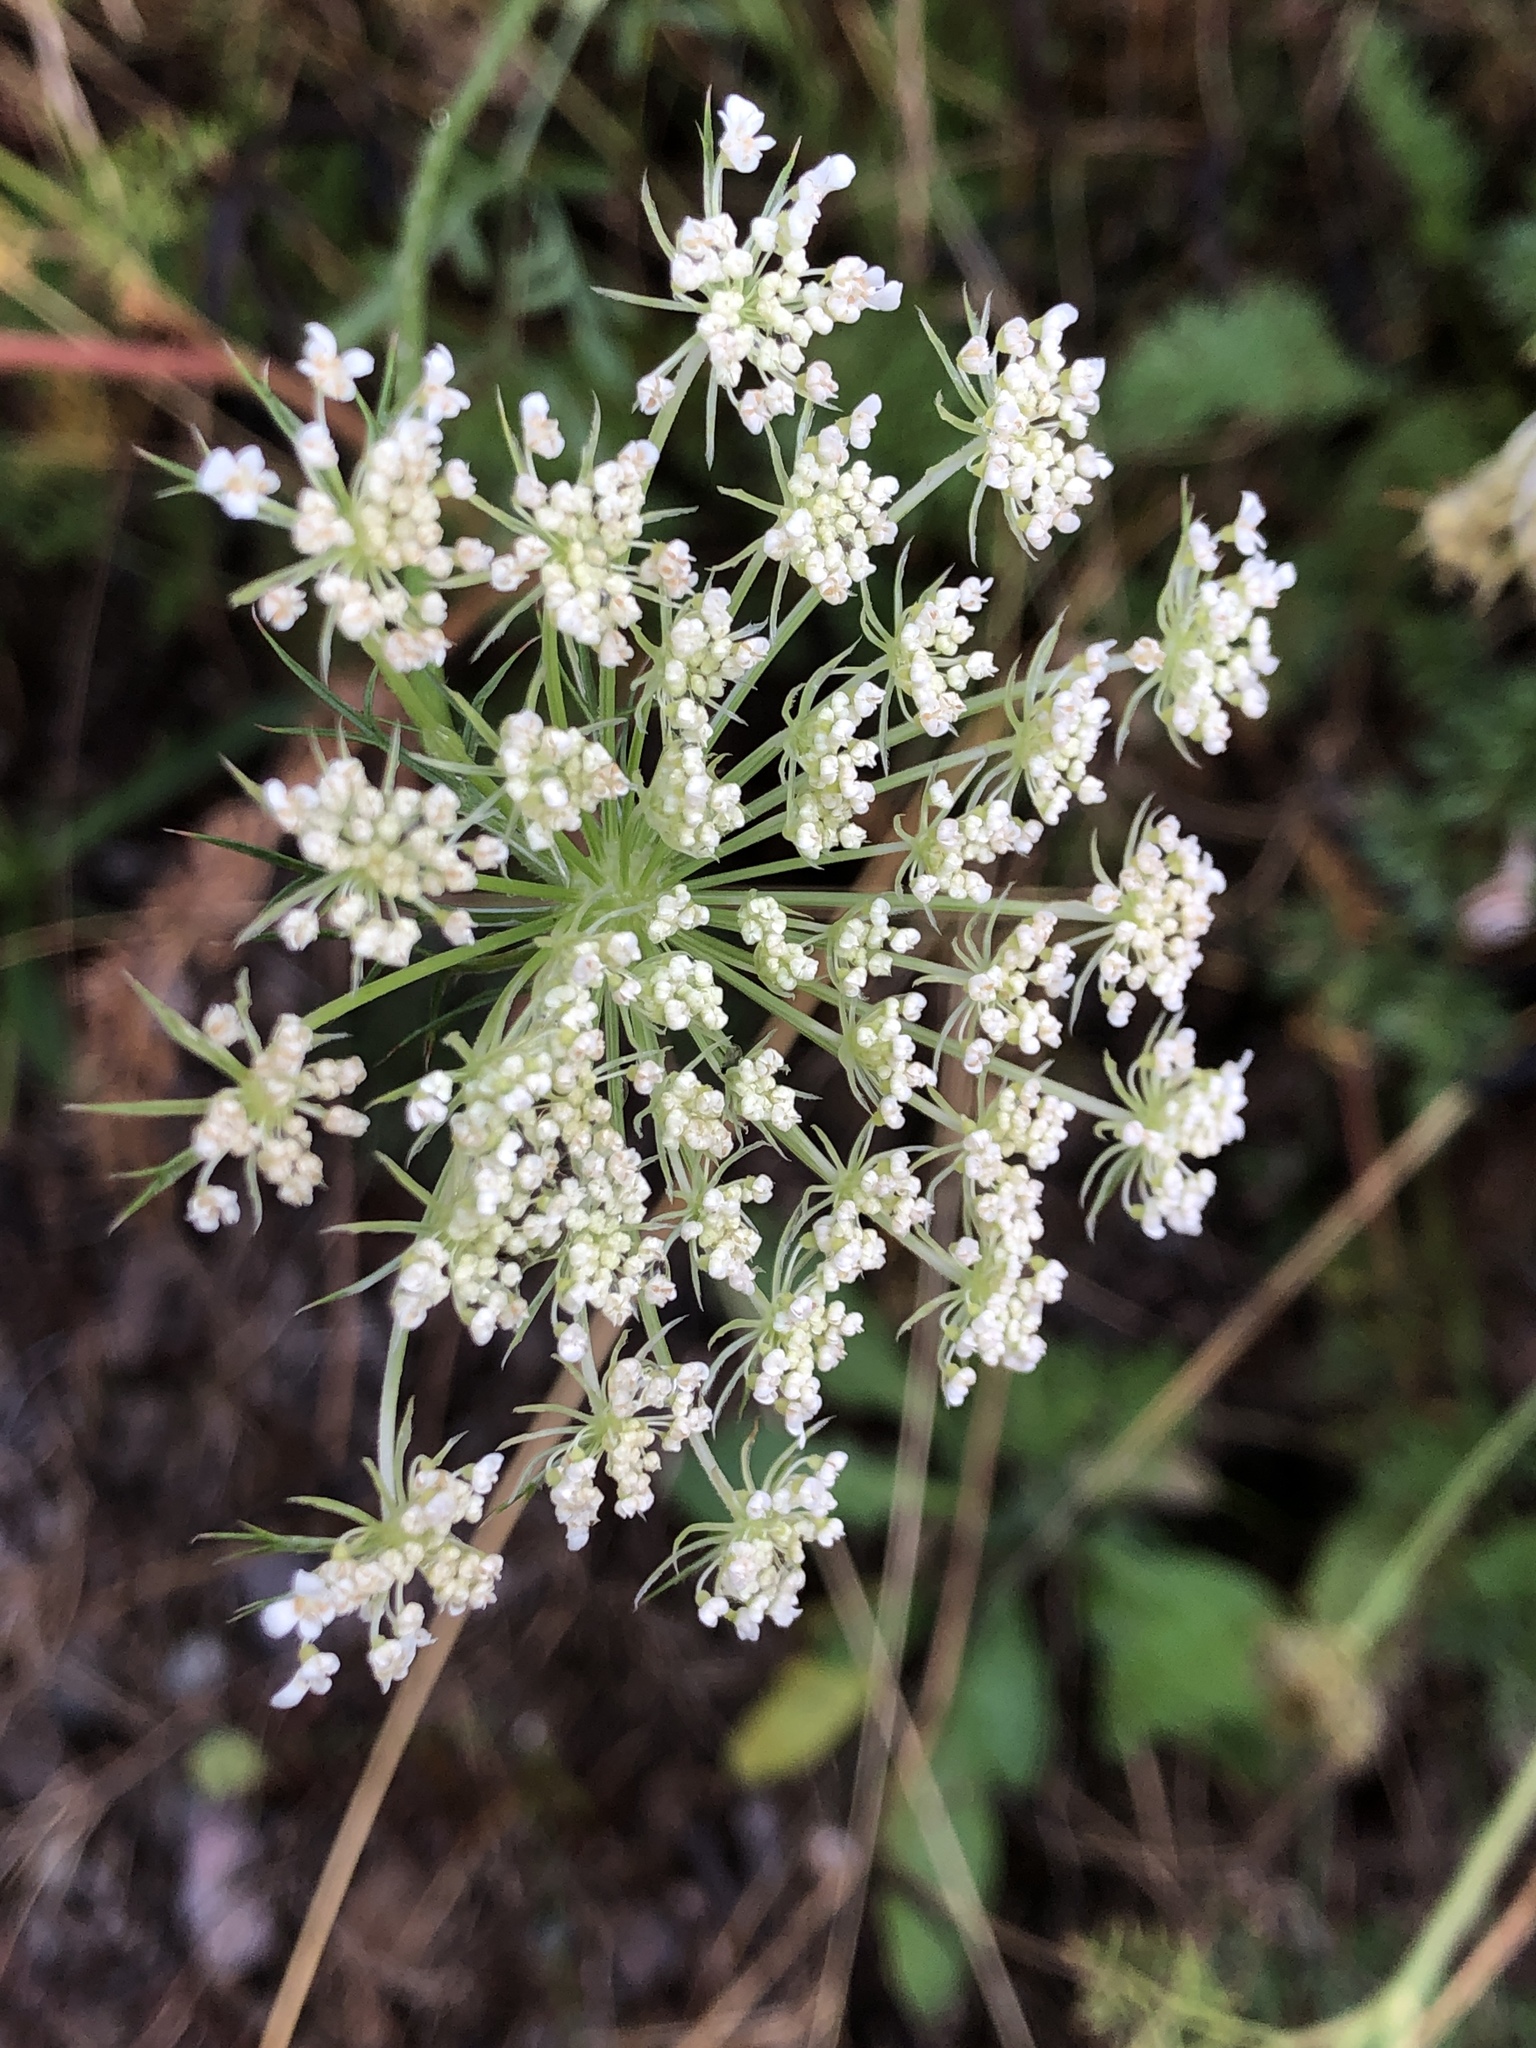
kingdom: Plantae
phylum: Tracheophyta
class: Magnoliopsida
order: Apiales
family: Apiaceae
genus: Daucus
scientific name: Daucus carota
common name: Wild carrot
